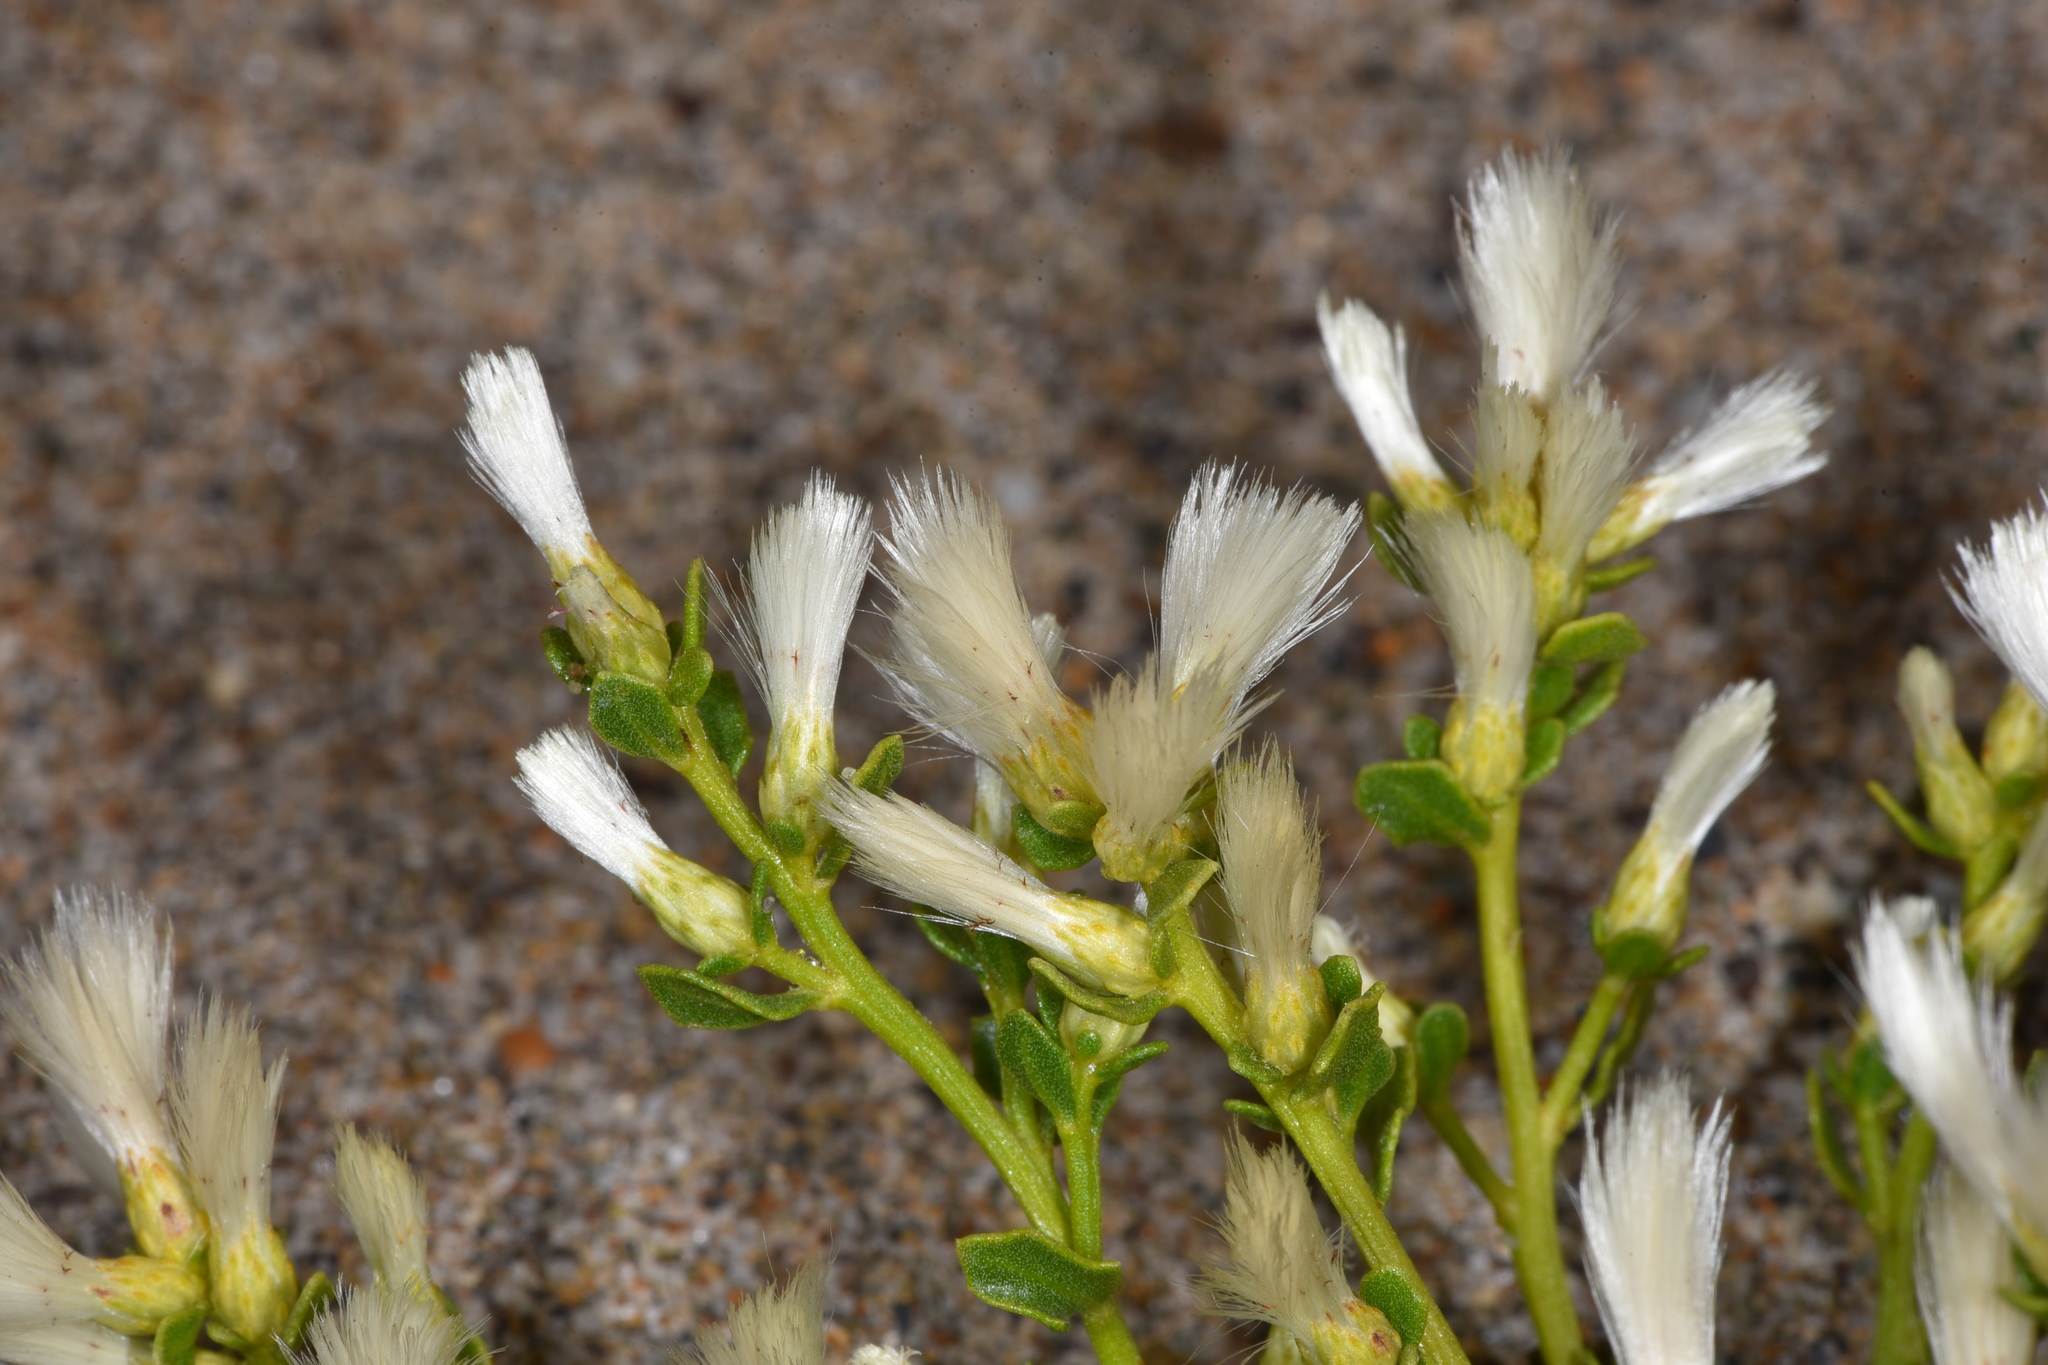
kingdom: Plantae
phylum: Tracheophyta
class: Magnoliopsida
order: Asterales
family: Asteraceae
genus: Baccharis
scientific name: Baccharis pilularis
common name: Coyotebrush
